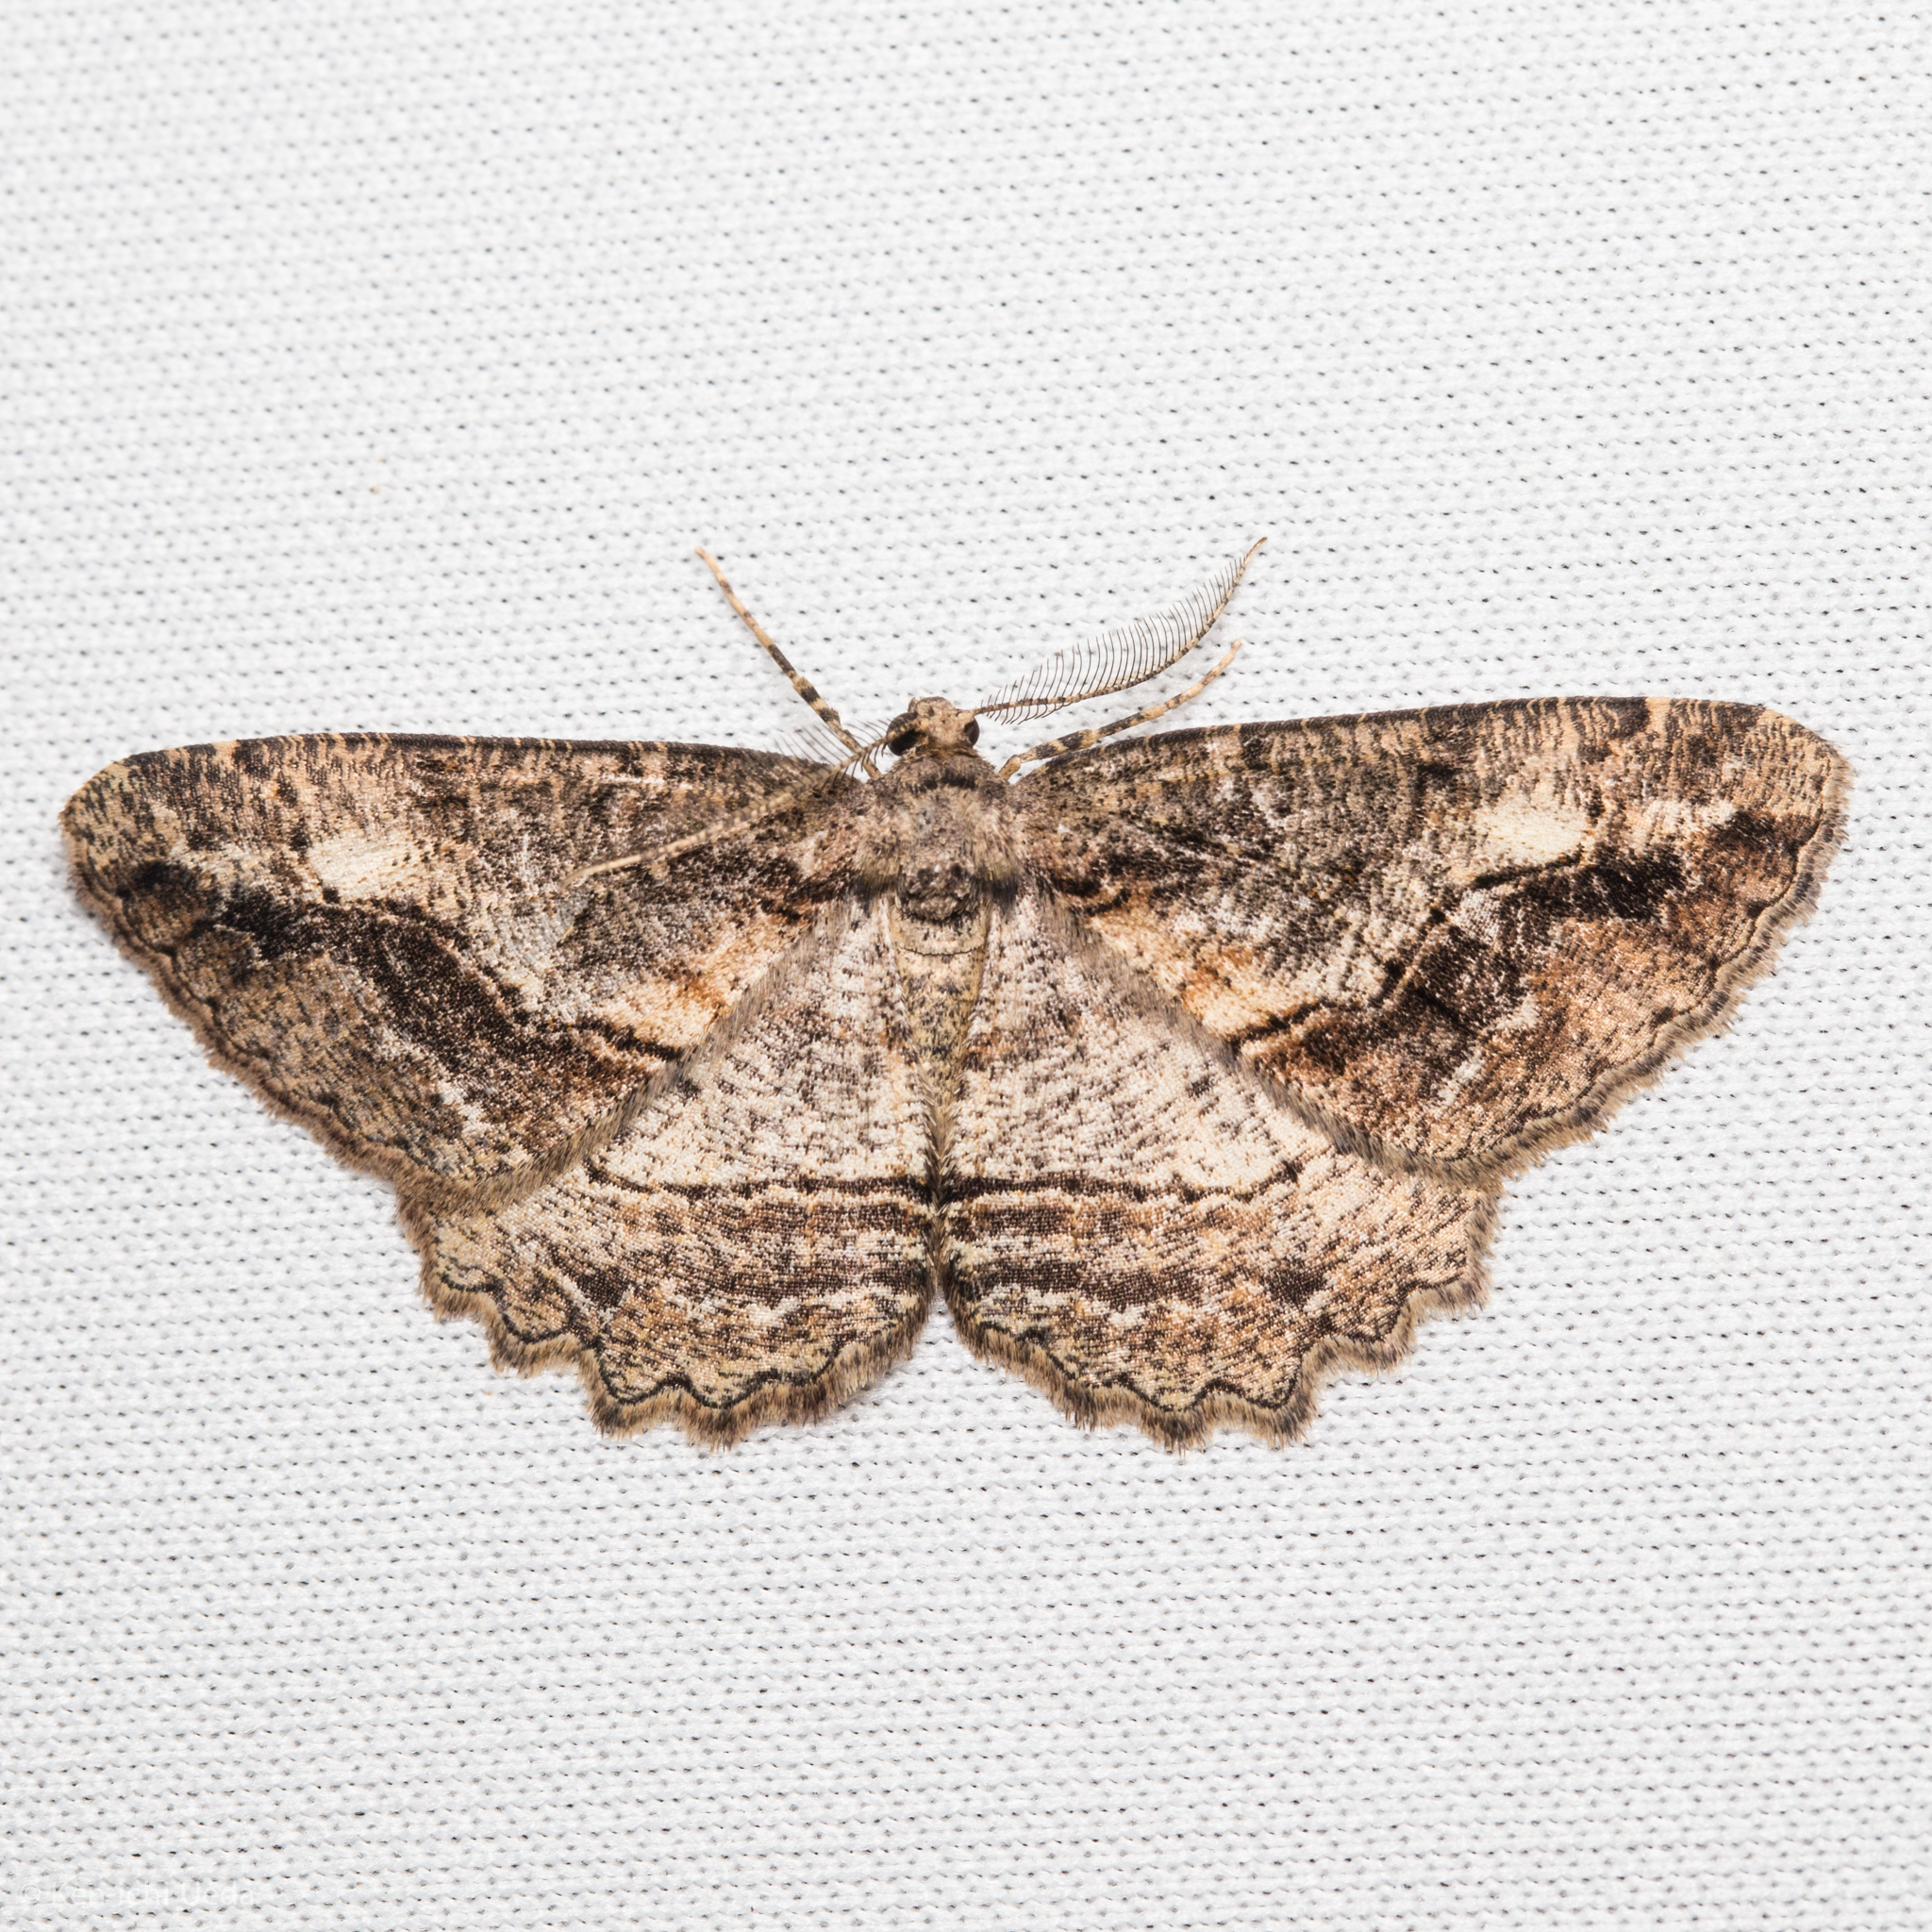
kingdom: Animalia
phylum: Arthropoda
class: Insecta
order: Lepidoptera
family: Geometridae
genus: Neoalcis
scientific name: Neoalcis californiaria
